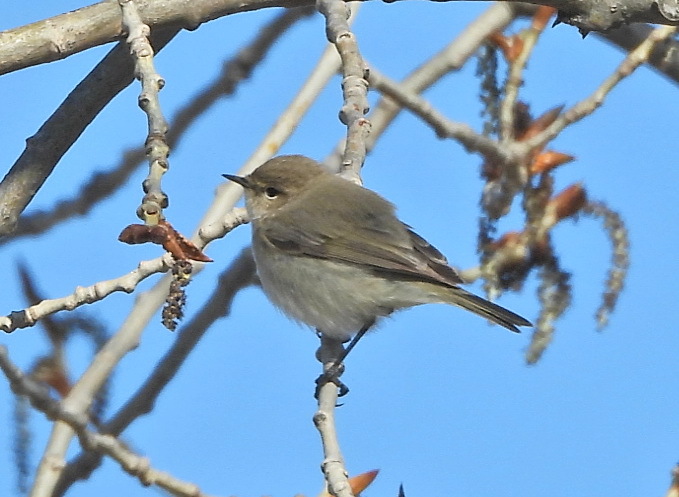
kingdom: Animalia
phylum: Chordata
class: Aves
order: Passeriformes
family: Phylloscopidae
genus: Phylloscopus
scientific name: Phylloscopus collybita
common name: Common chiffchaff
